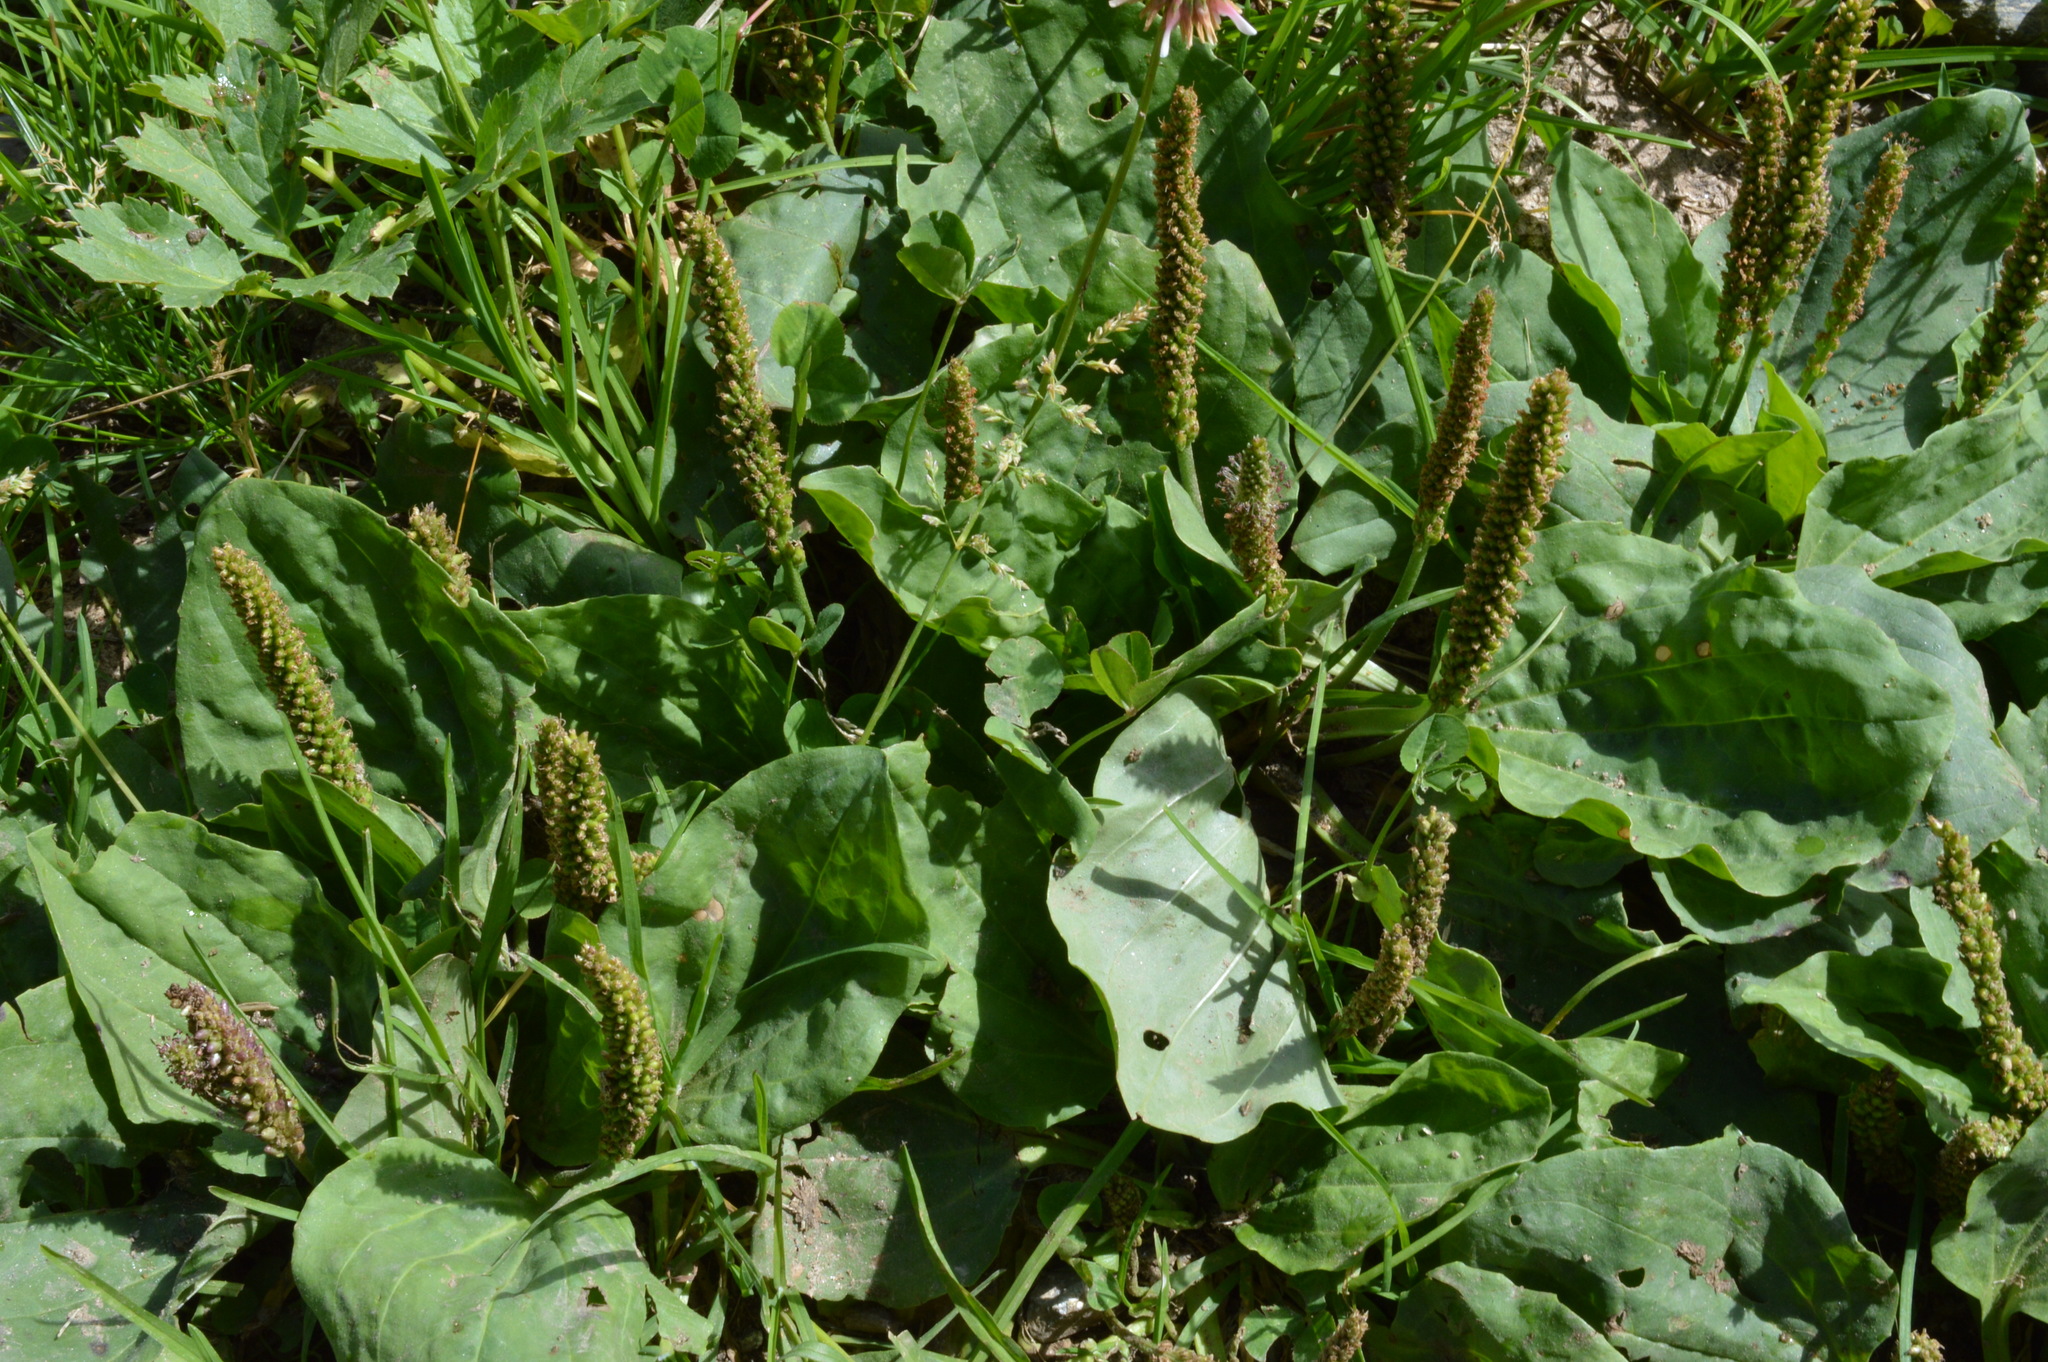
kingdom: Plantae
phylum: Tracheophyta
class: Magnoliopsida
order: Lamiales
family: Plantaginaceae
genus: Plantago
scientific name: Plantago major
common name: Common plantain
